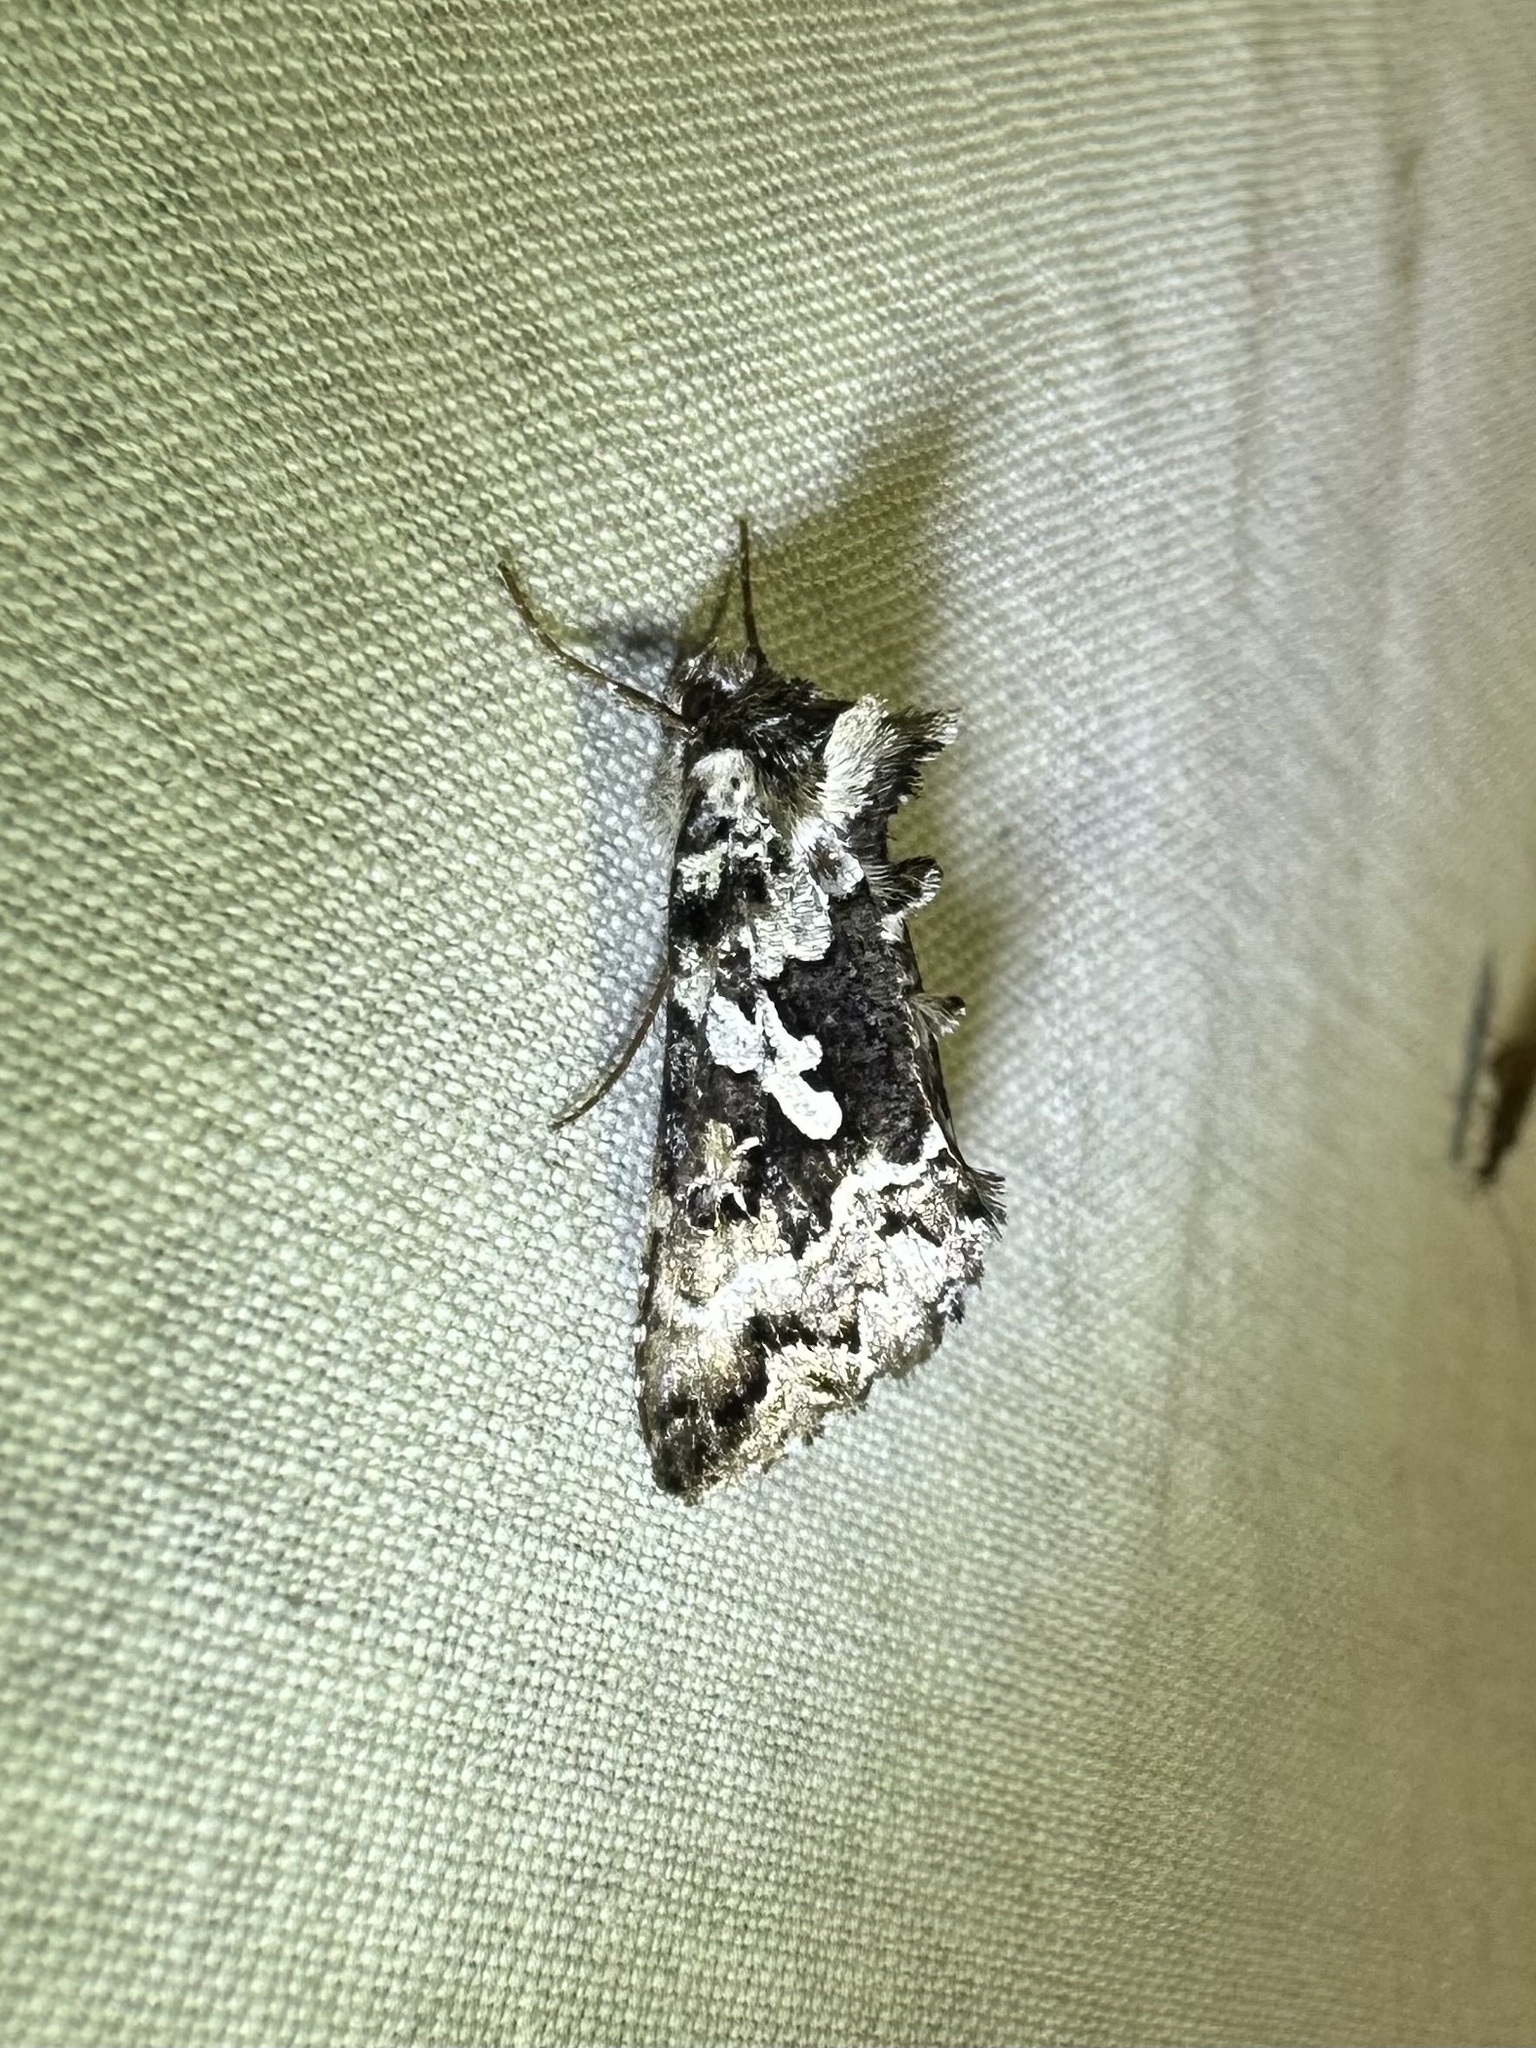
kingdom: Animalia
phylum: Arthropoda
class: Insecta
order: Lepidoptera
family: Noctuidae
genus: Syngrapha
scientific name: Syngrapha rectangula
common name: Angulated cutworm
